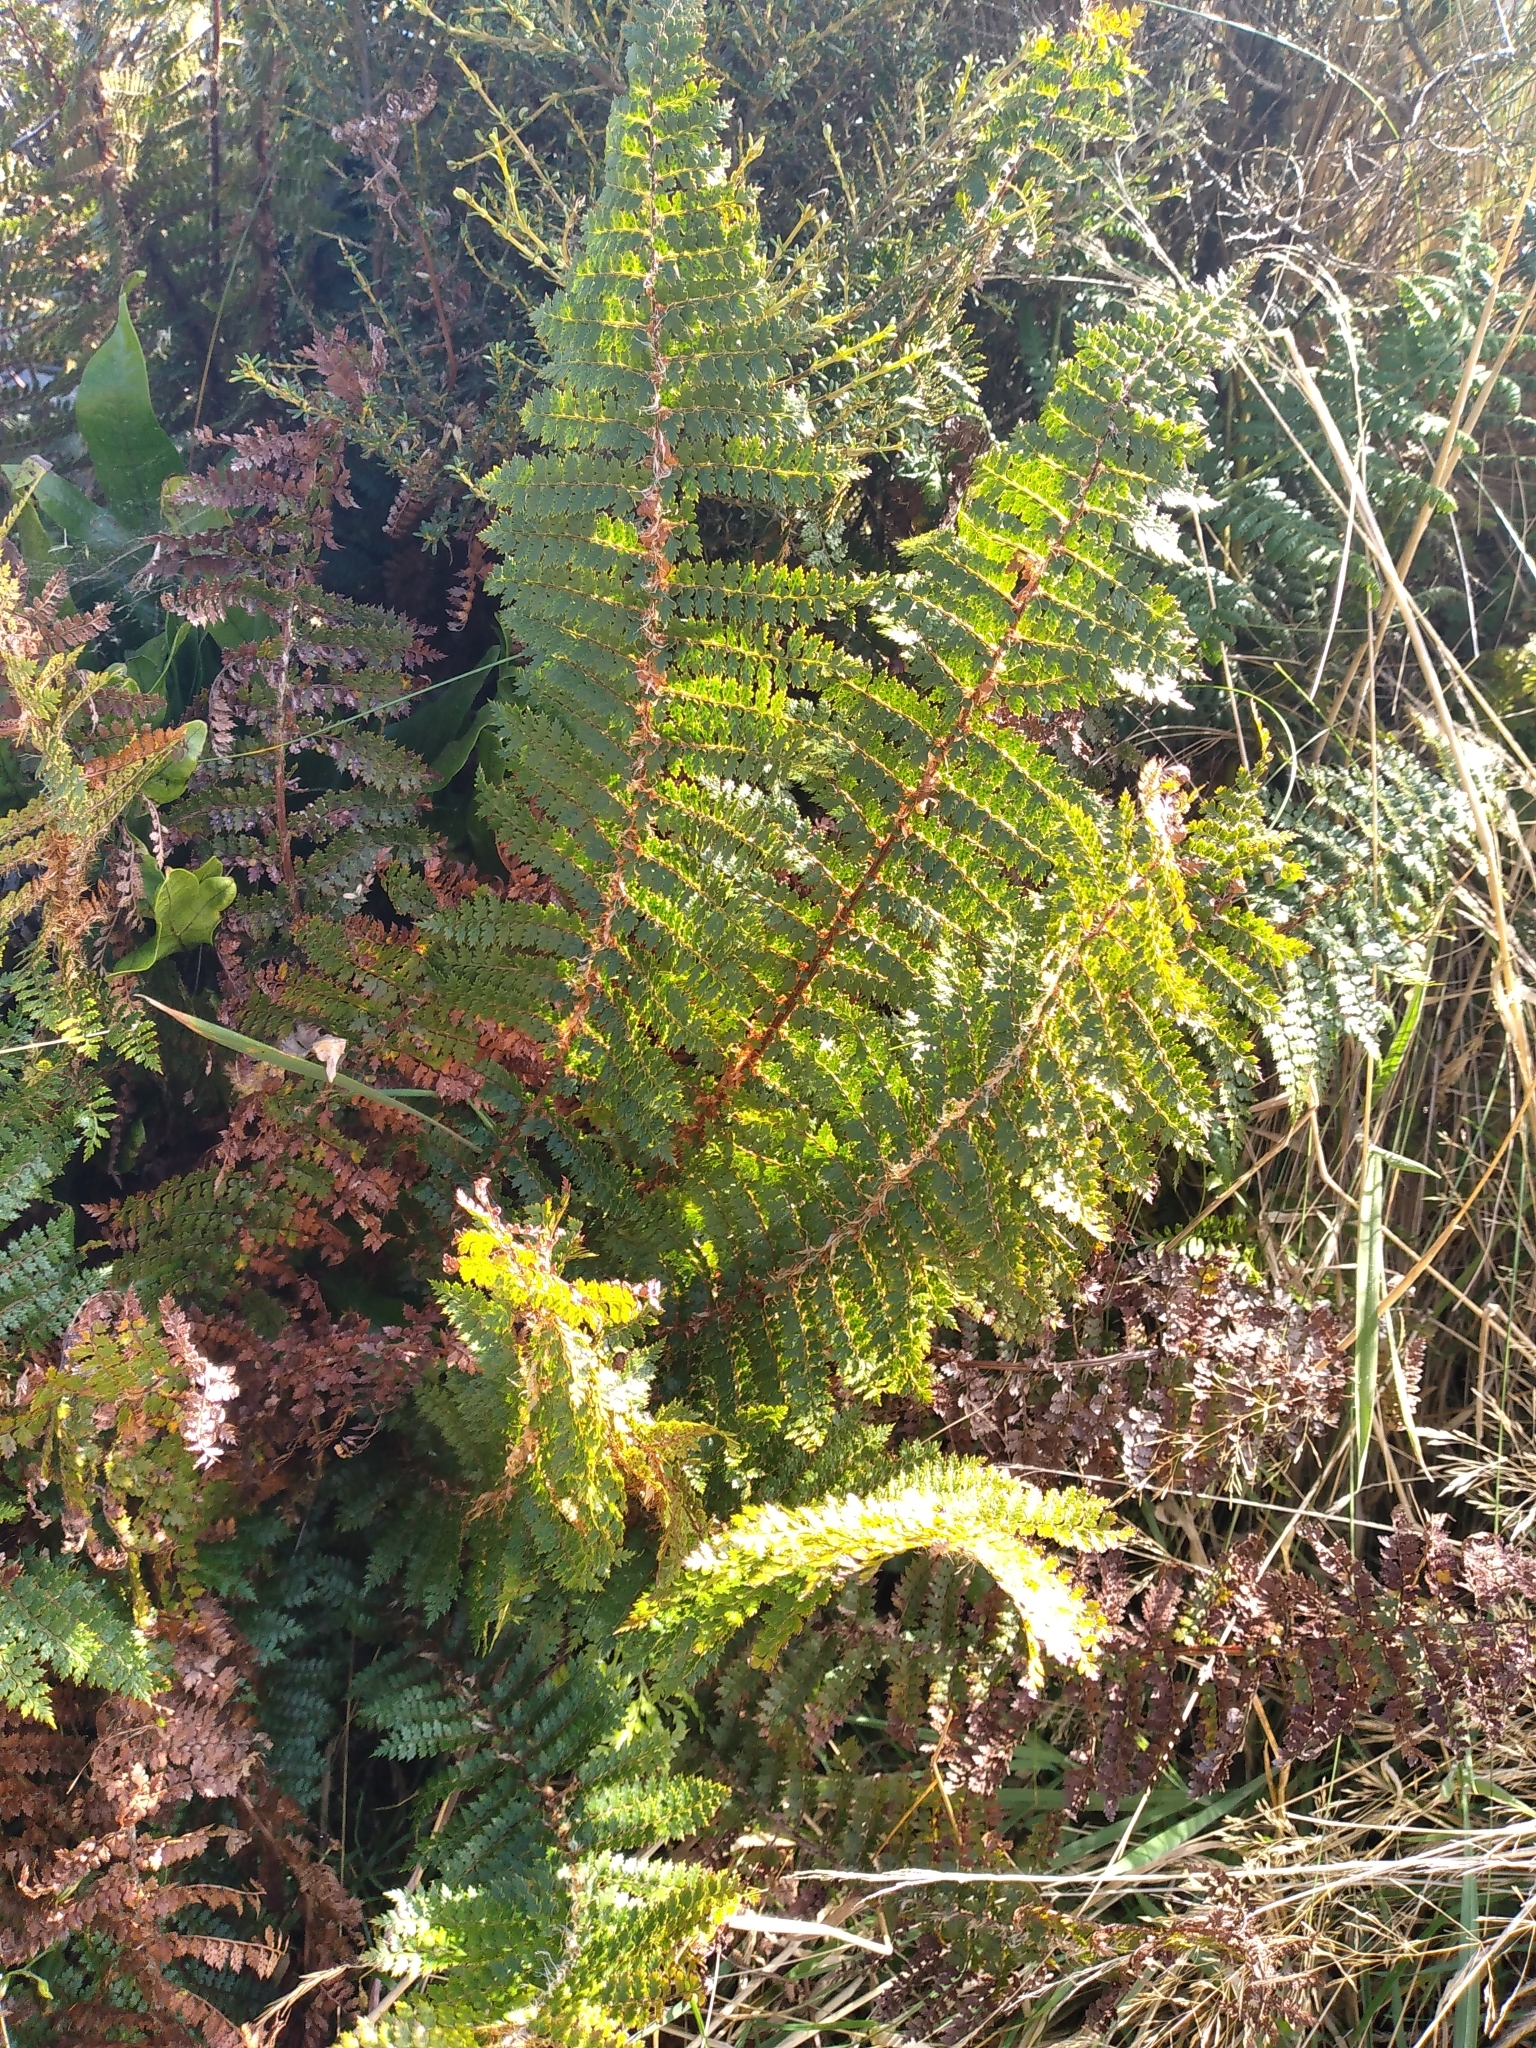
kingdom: Plantae
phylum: Tracheophyta
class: Polypodiopsida
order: Polypodiales
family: Dryopteridaceae
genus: Polystichum
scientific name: Polystichum vestitum
